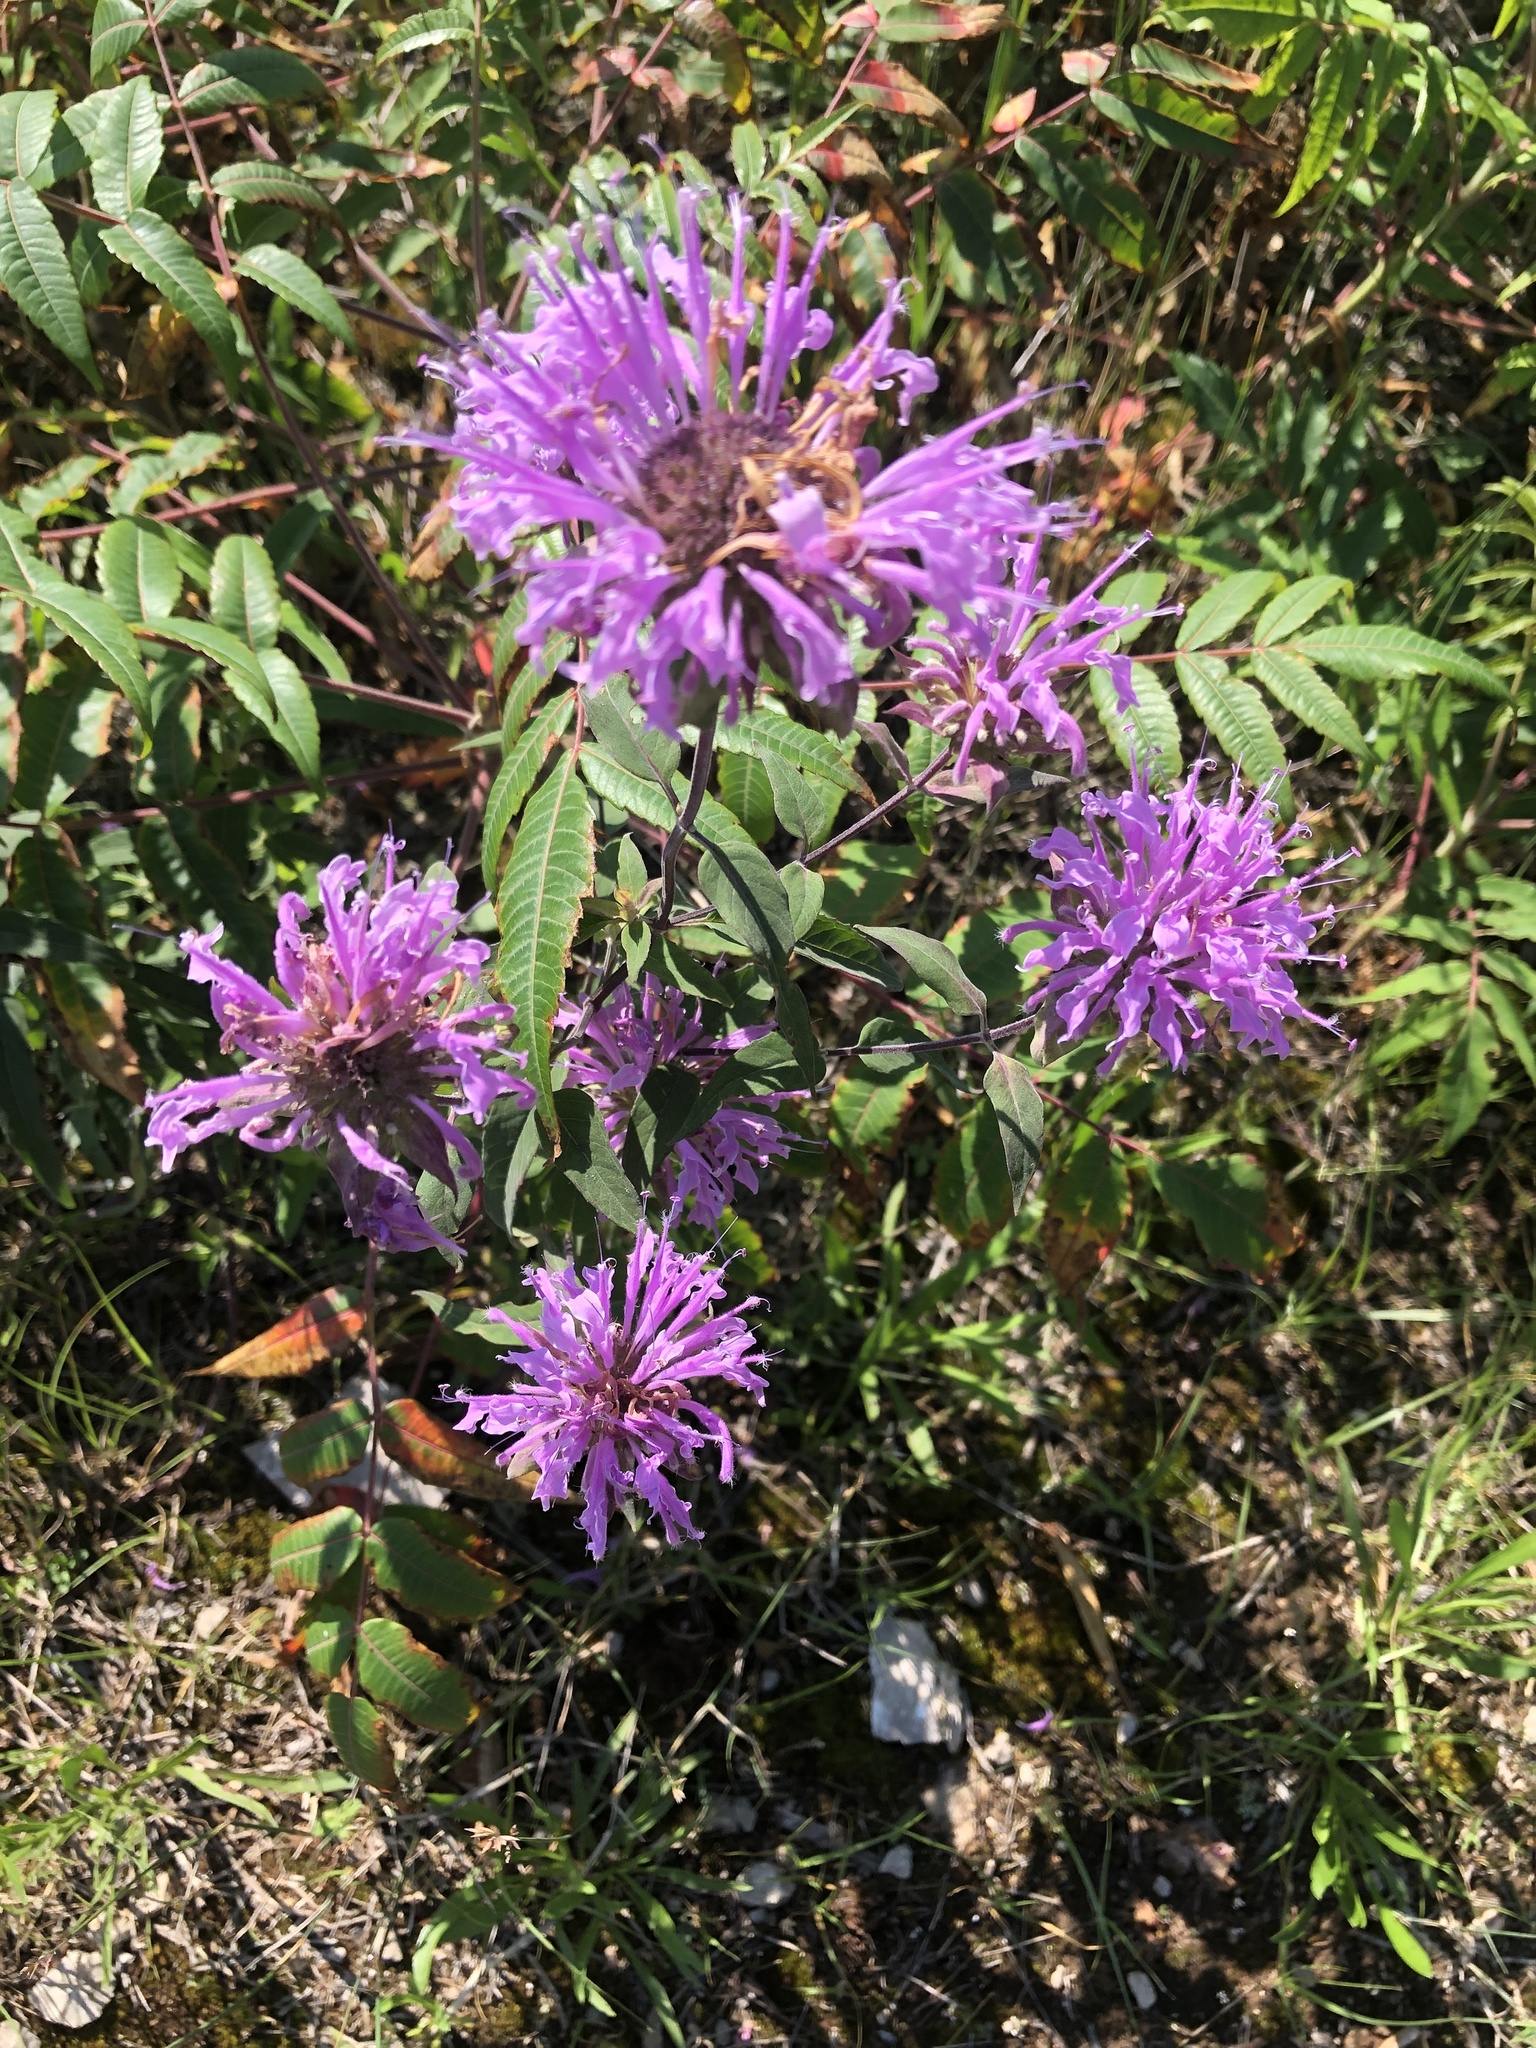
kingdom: Plantae
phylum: Tracheophyta
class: Magnoliopsida
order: Lamiales
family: Lamiaceae
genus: Monarda
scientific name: Monarda fistulosa
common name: Purple beebalm
